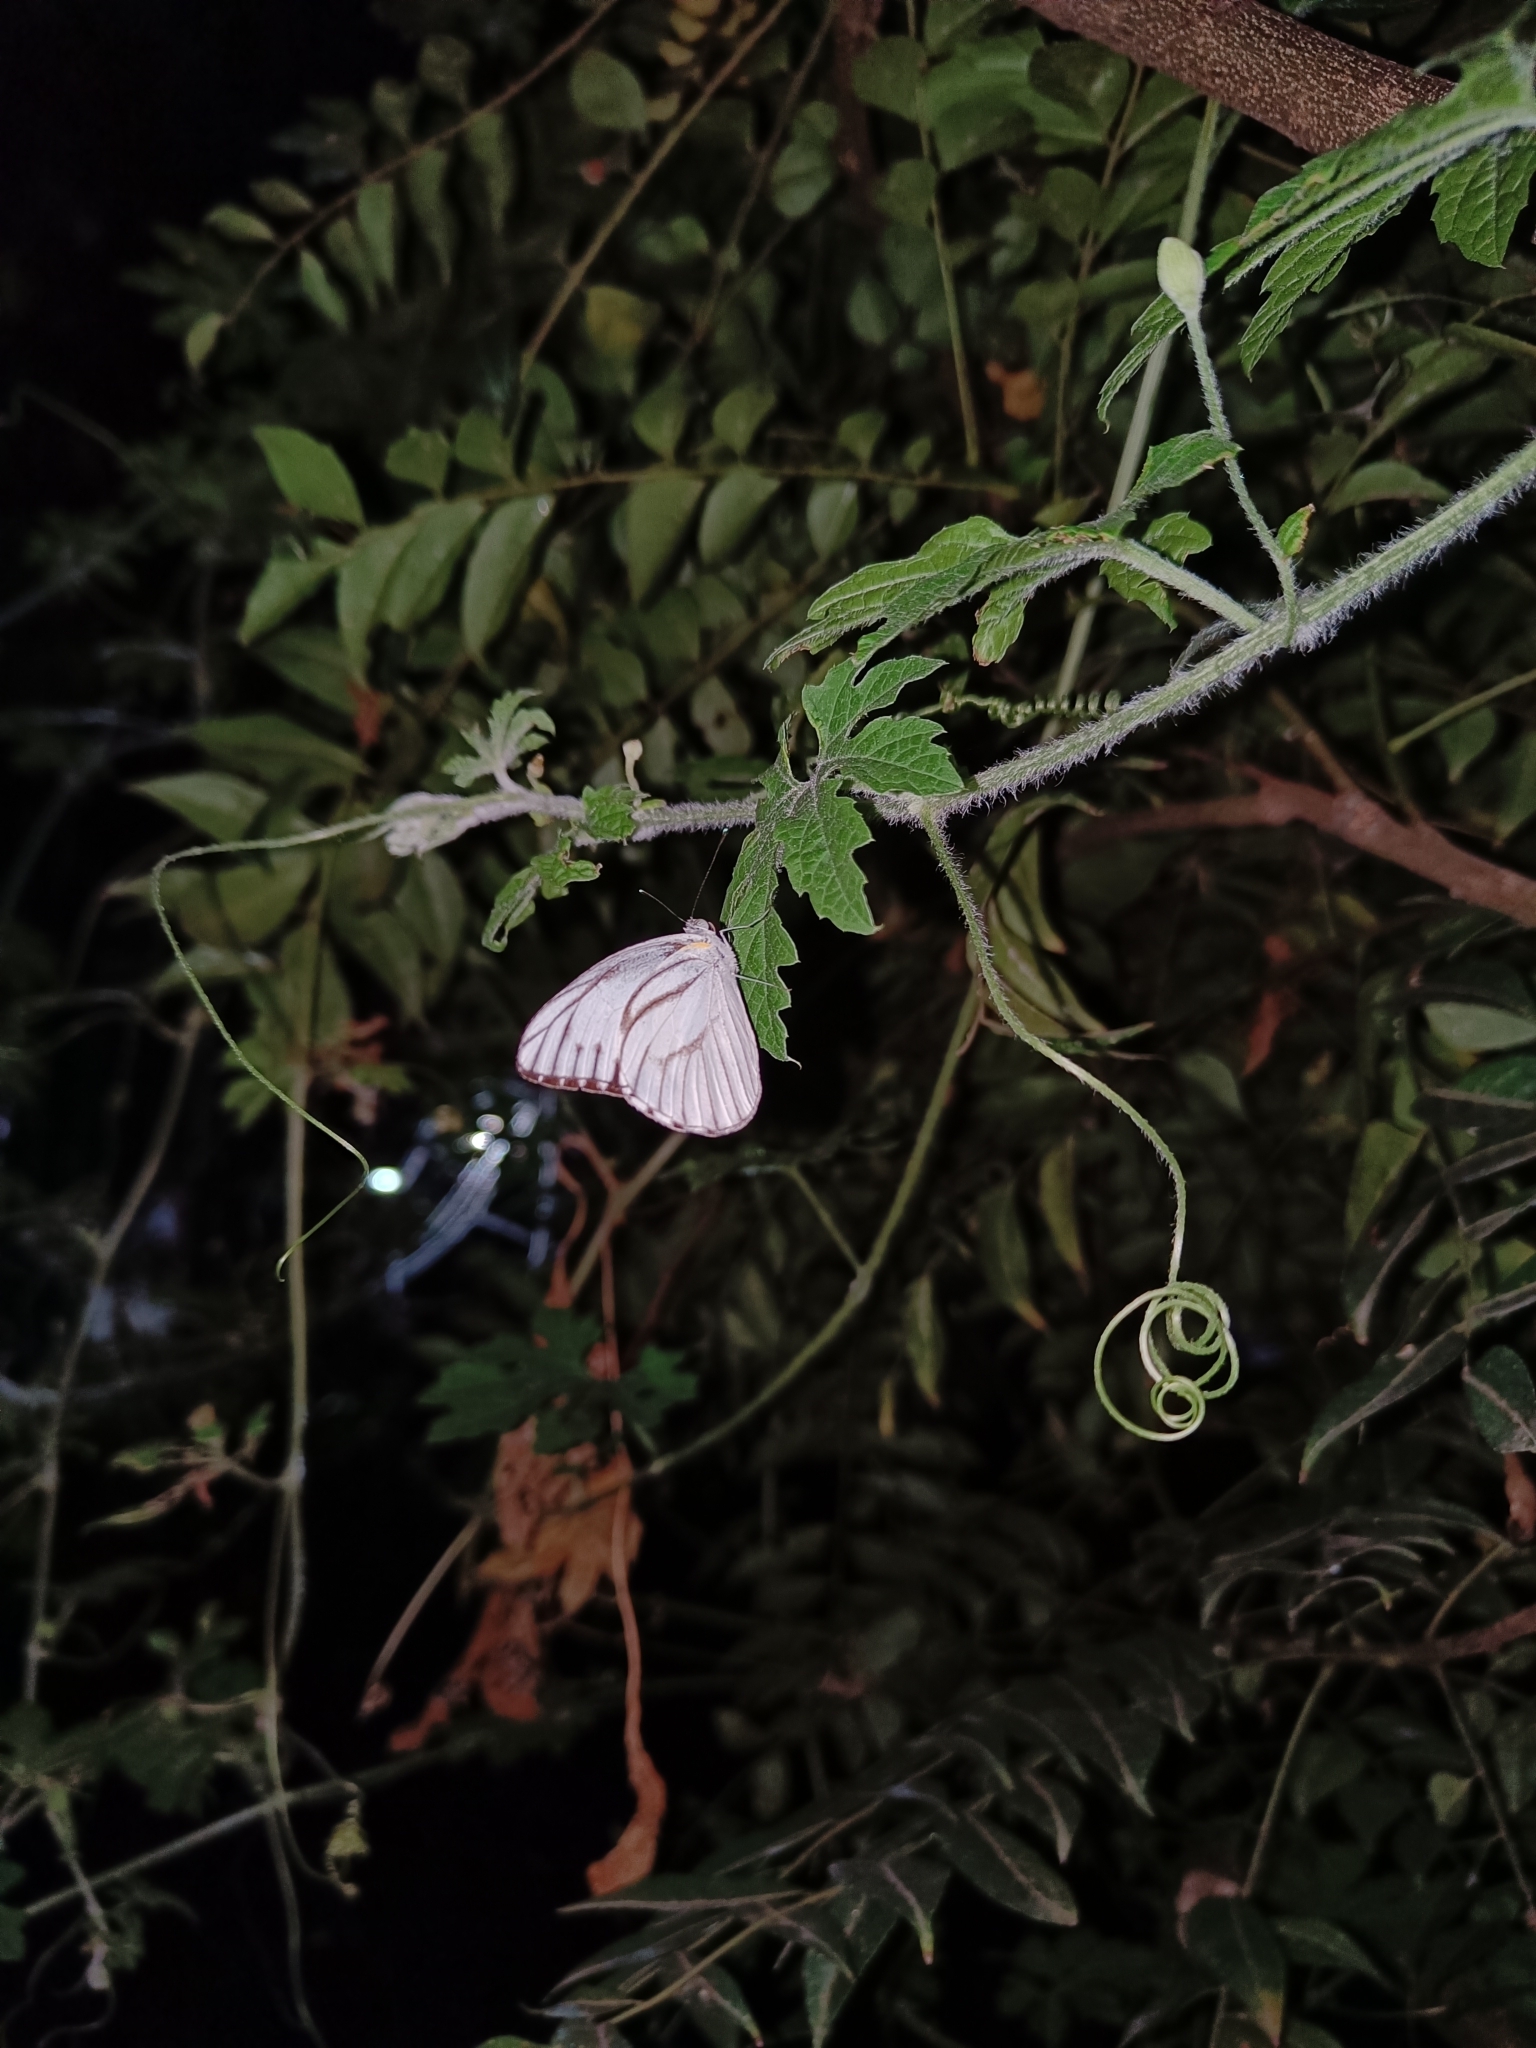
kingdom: Animalia
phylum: Arthropoda
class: Insecta
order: Lepidoptera
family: Pieridae
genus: Appias
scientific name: Appias libythea
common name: Striped albatross
